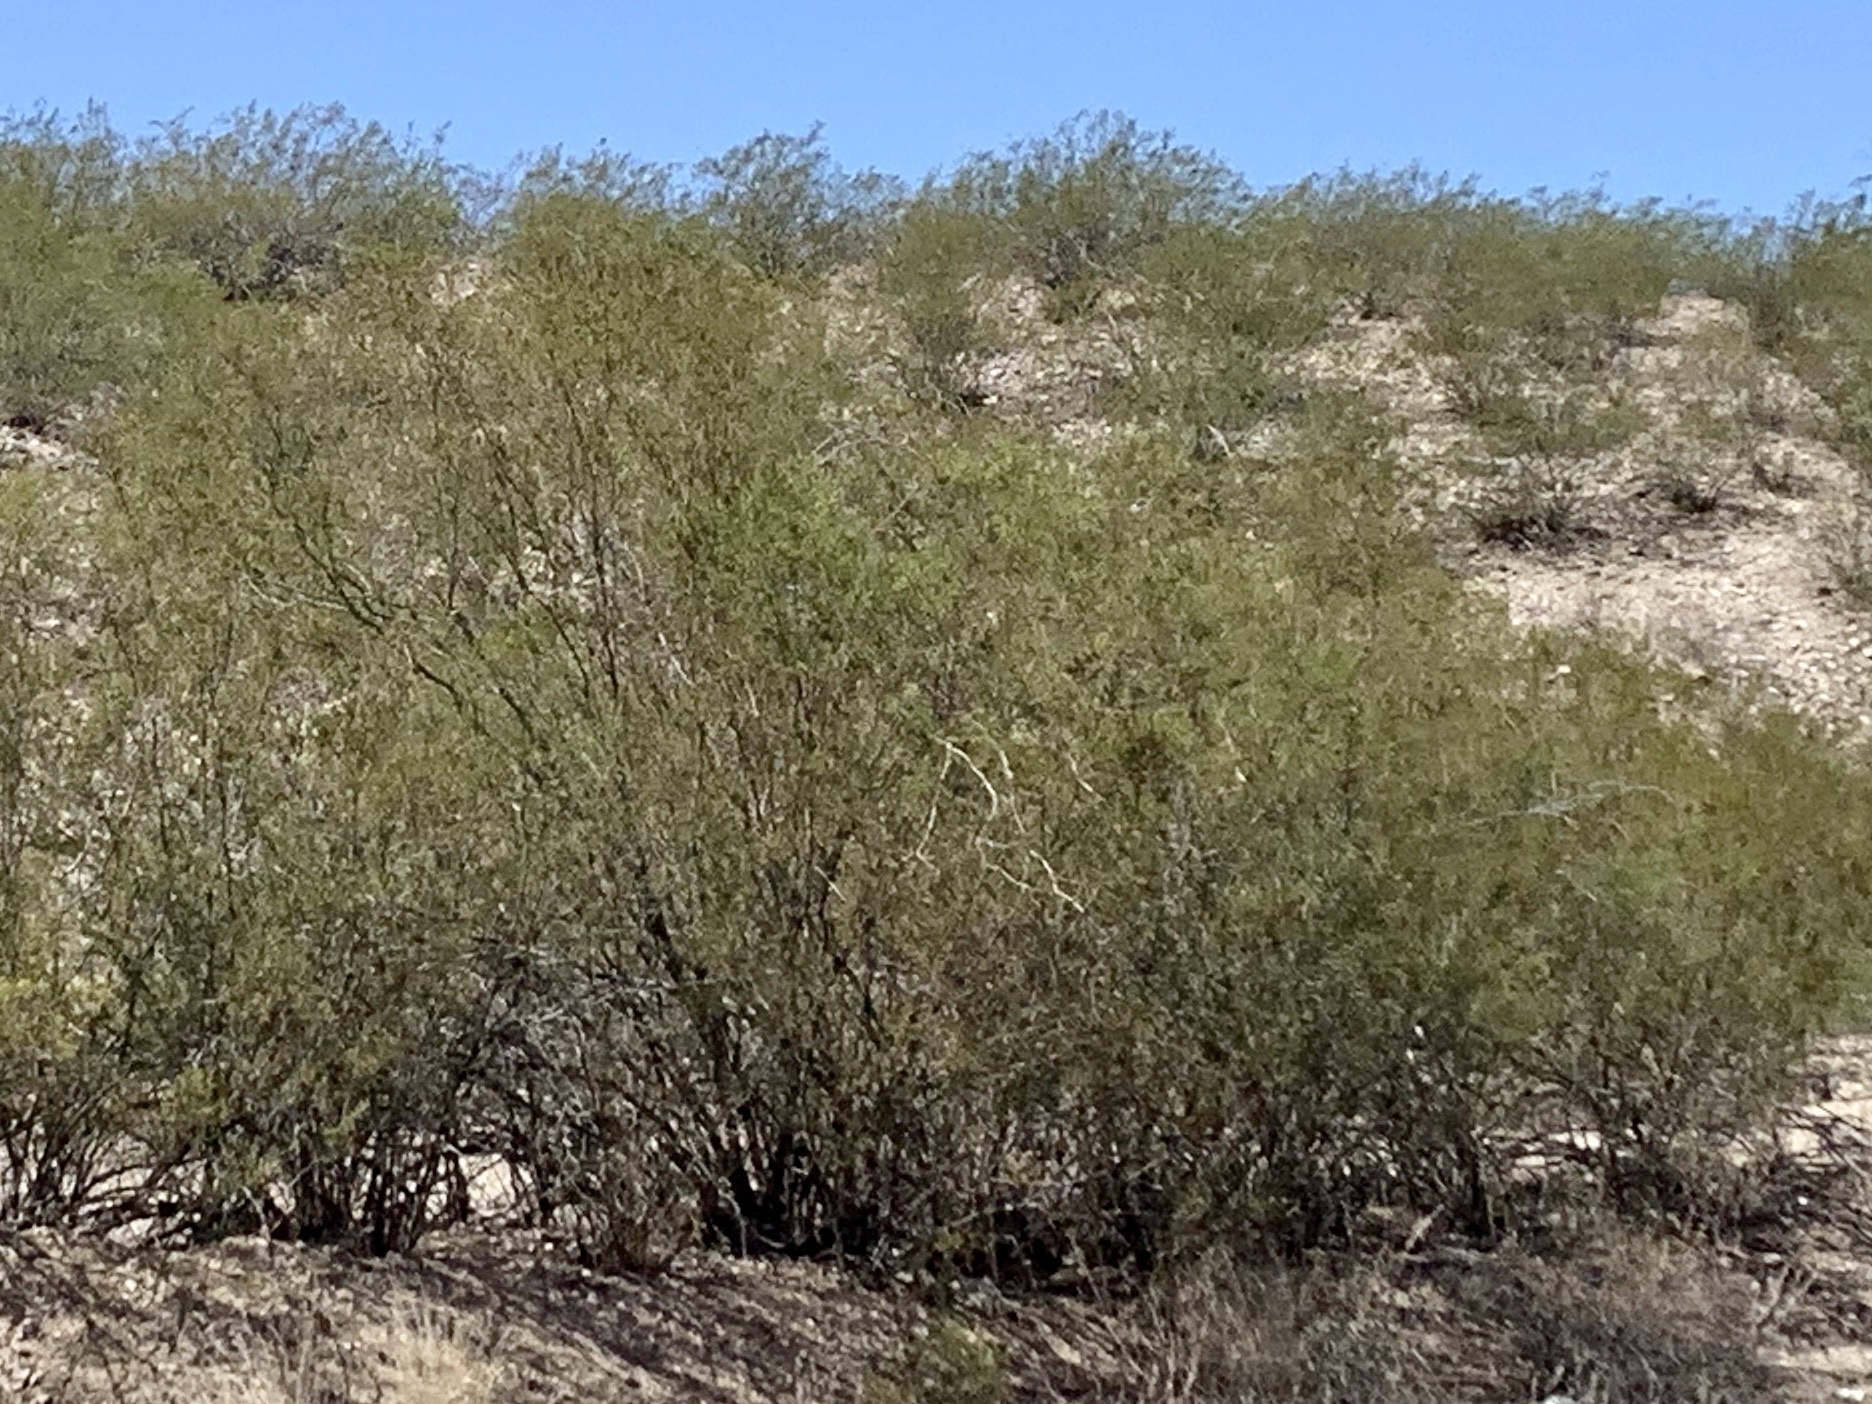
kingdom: Plantae
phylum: Tracheophyta
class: Magnoliopsida
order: Zygophyllales
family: Zygophyllaceae
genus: Larrea
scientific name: Larrea tridentata
